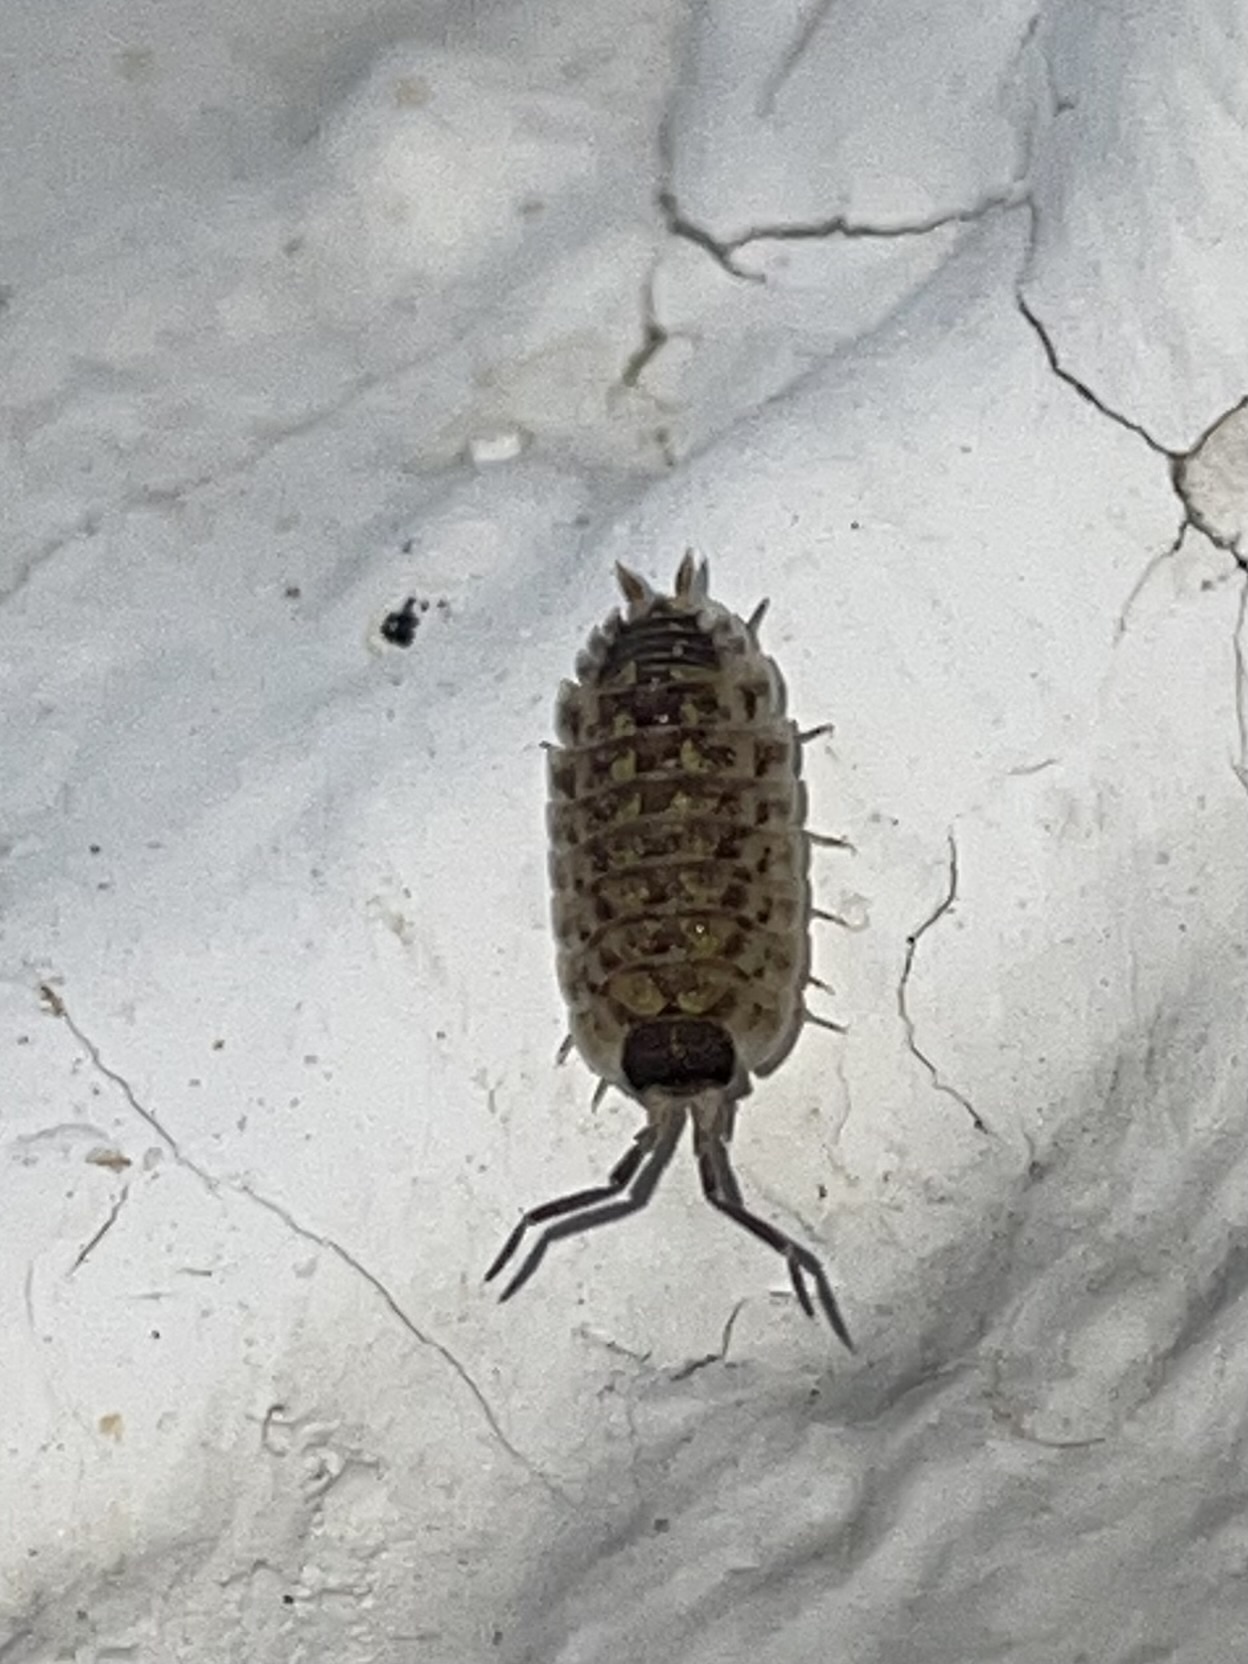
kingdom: Animalia
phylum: Arthropoda
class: Malacostraca
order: Isopoda
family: Porcellionidae
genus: Porcellio
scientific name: Porcellio spinicornis
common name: Painted woodlouse
